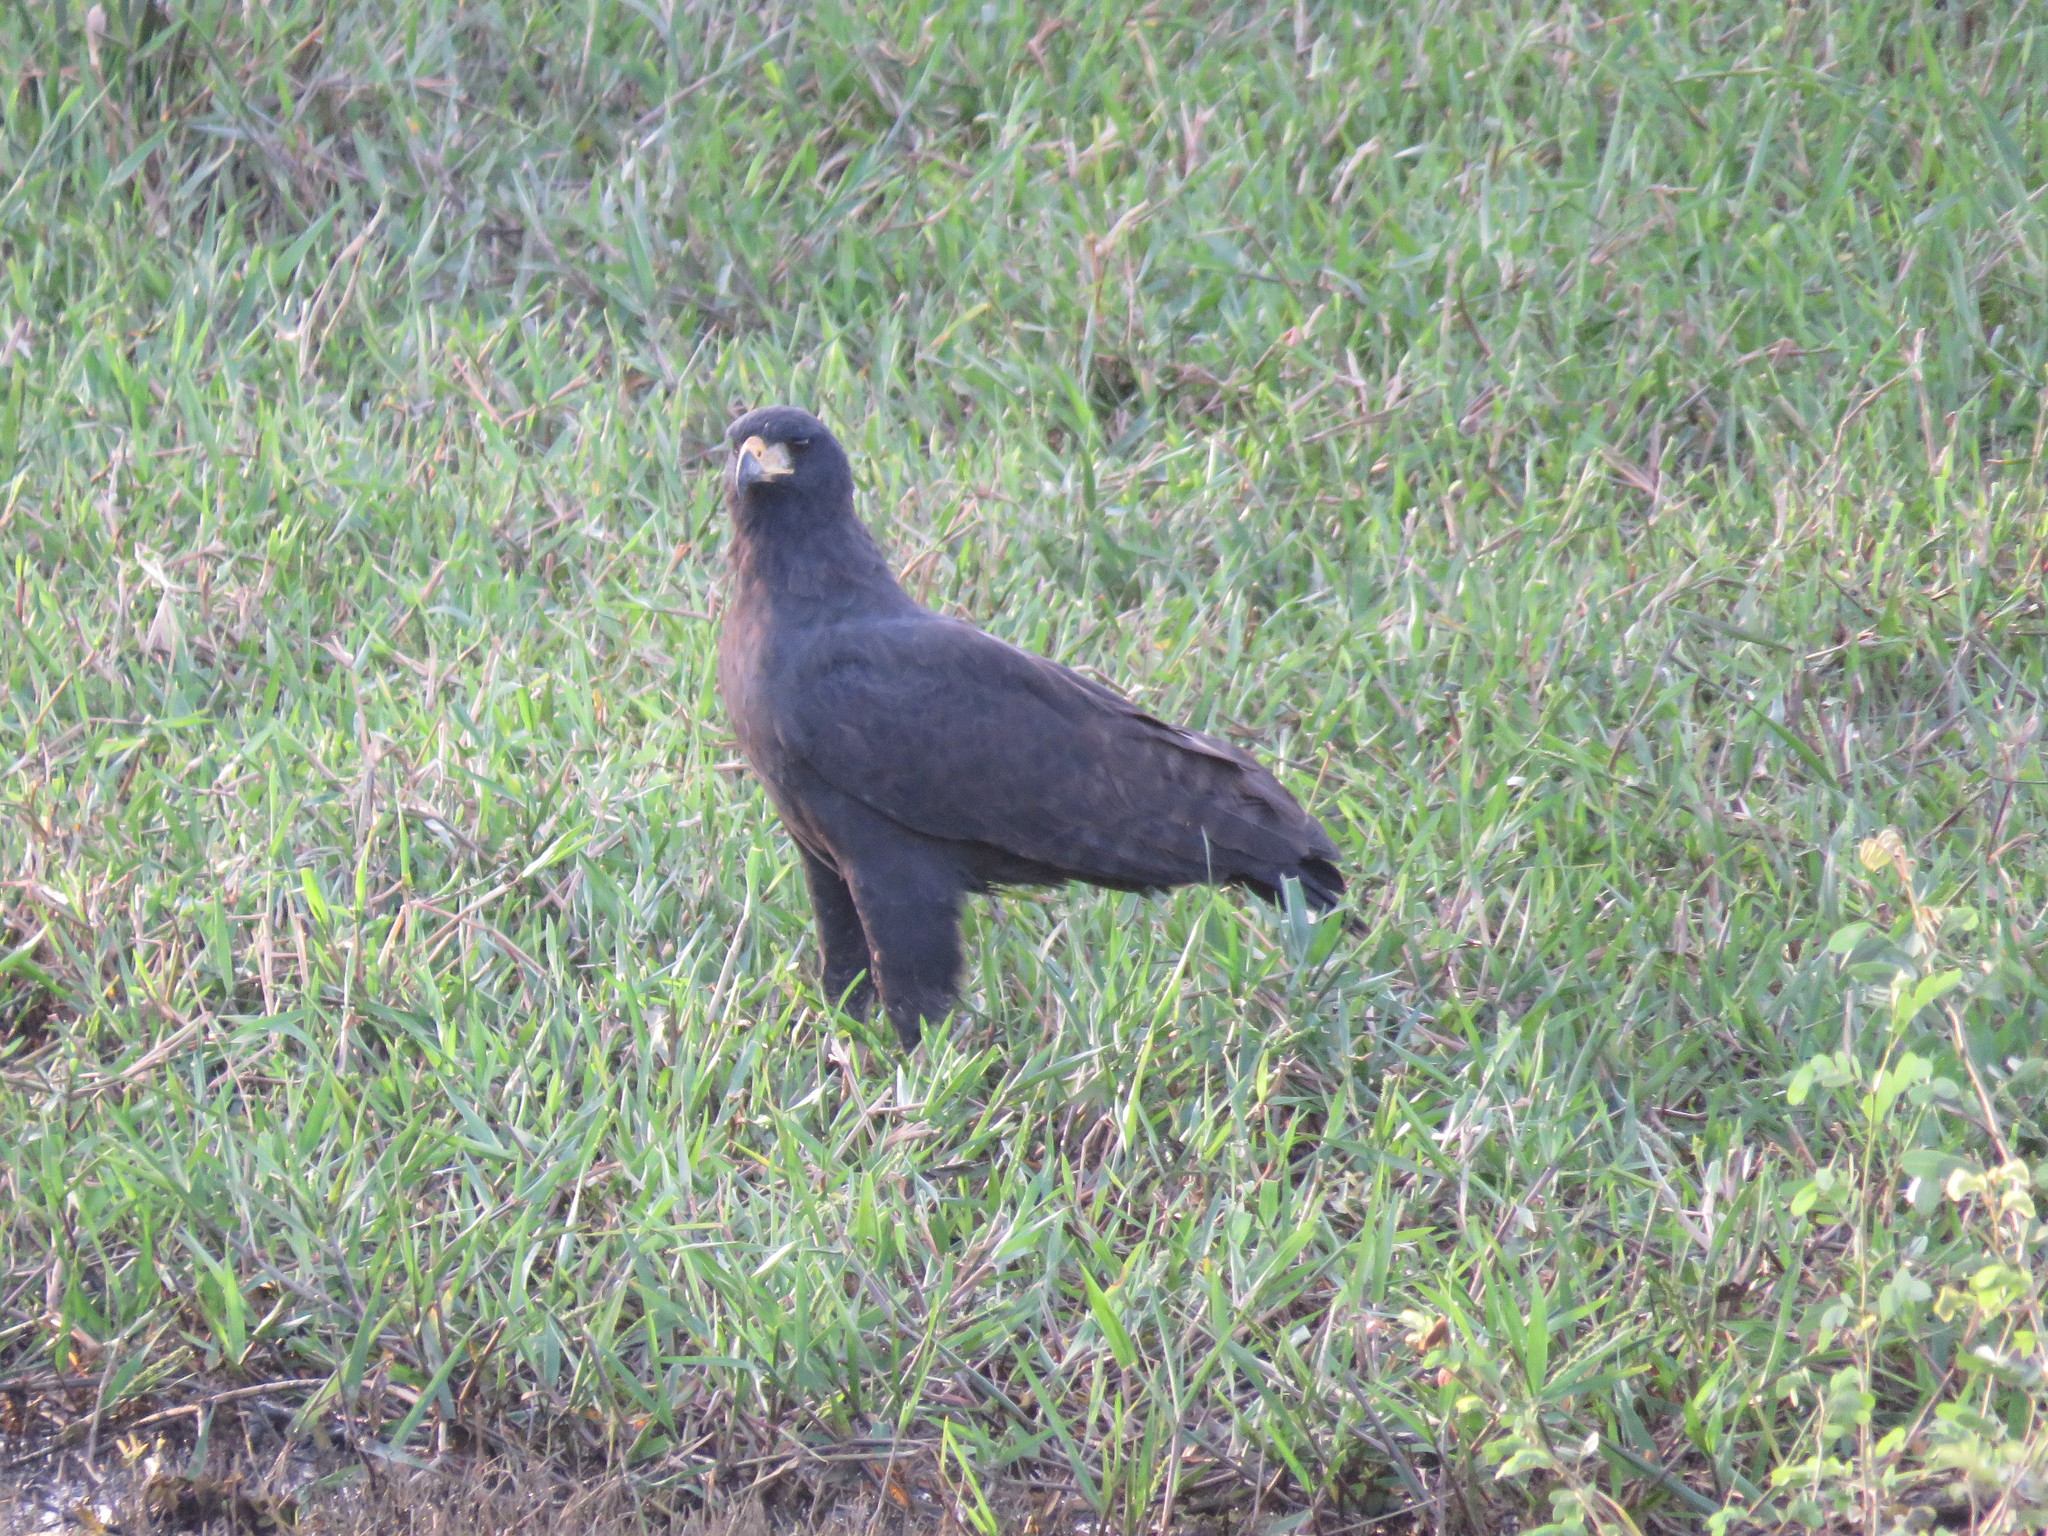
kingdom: Animalia
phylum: Chordata
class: Aves
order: Accipitriformes
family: Accipitridae
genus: Buteogallus
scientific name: Buteogallus urubitinga
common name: Great black hawk
